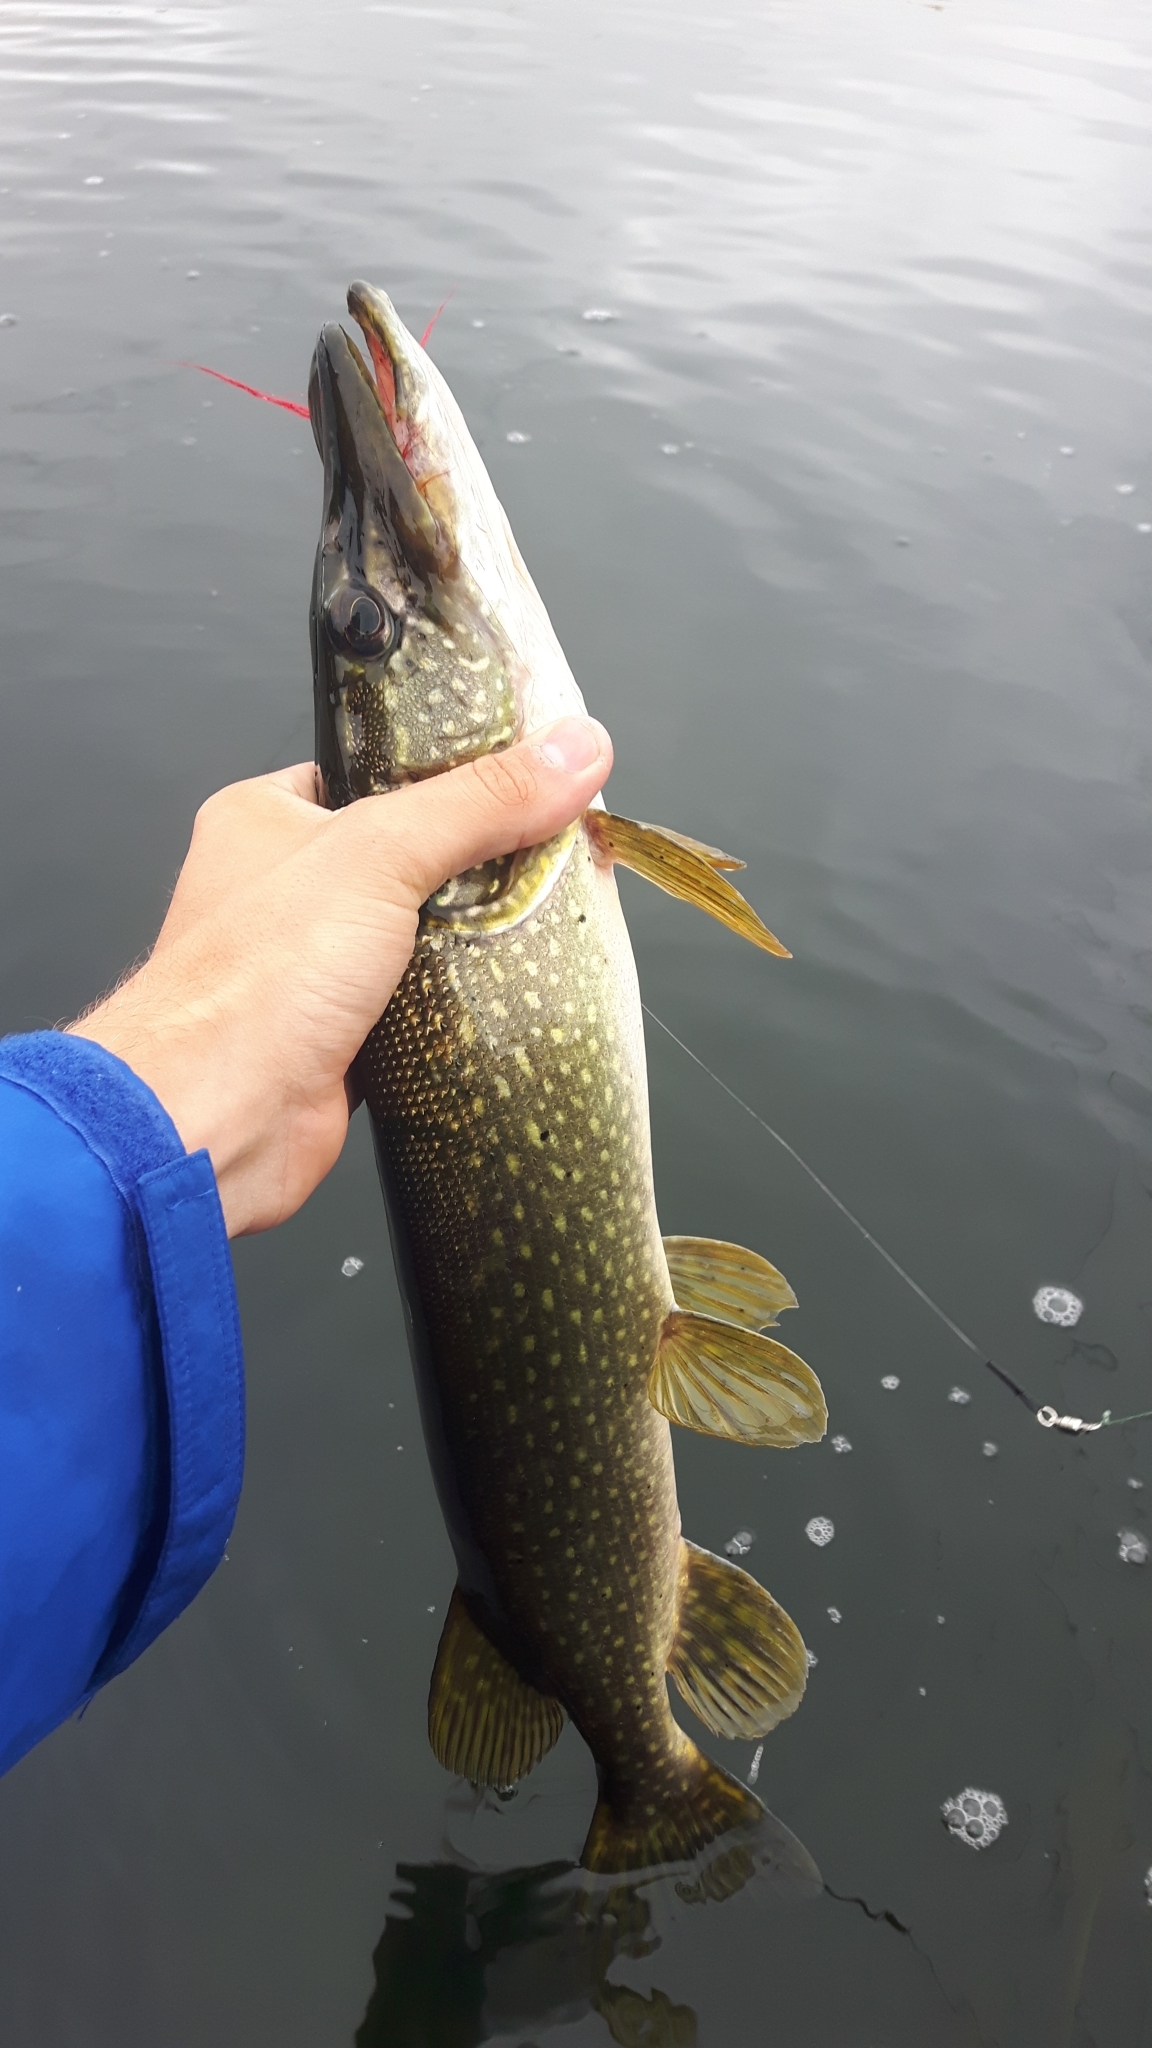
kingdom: Animalia
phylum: Chordata
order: Esociformes
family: Esocidae
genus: Esox
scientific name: Esox lucius
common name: Northern pike
